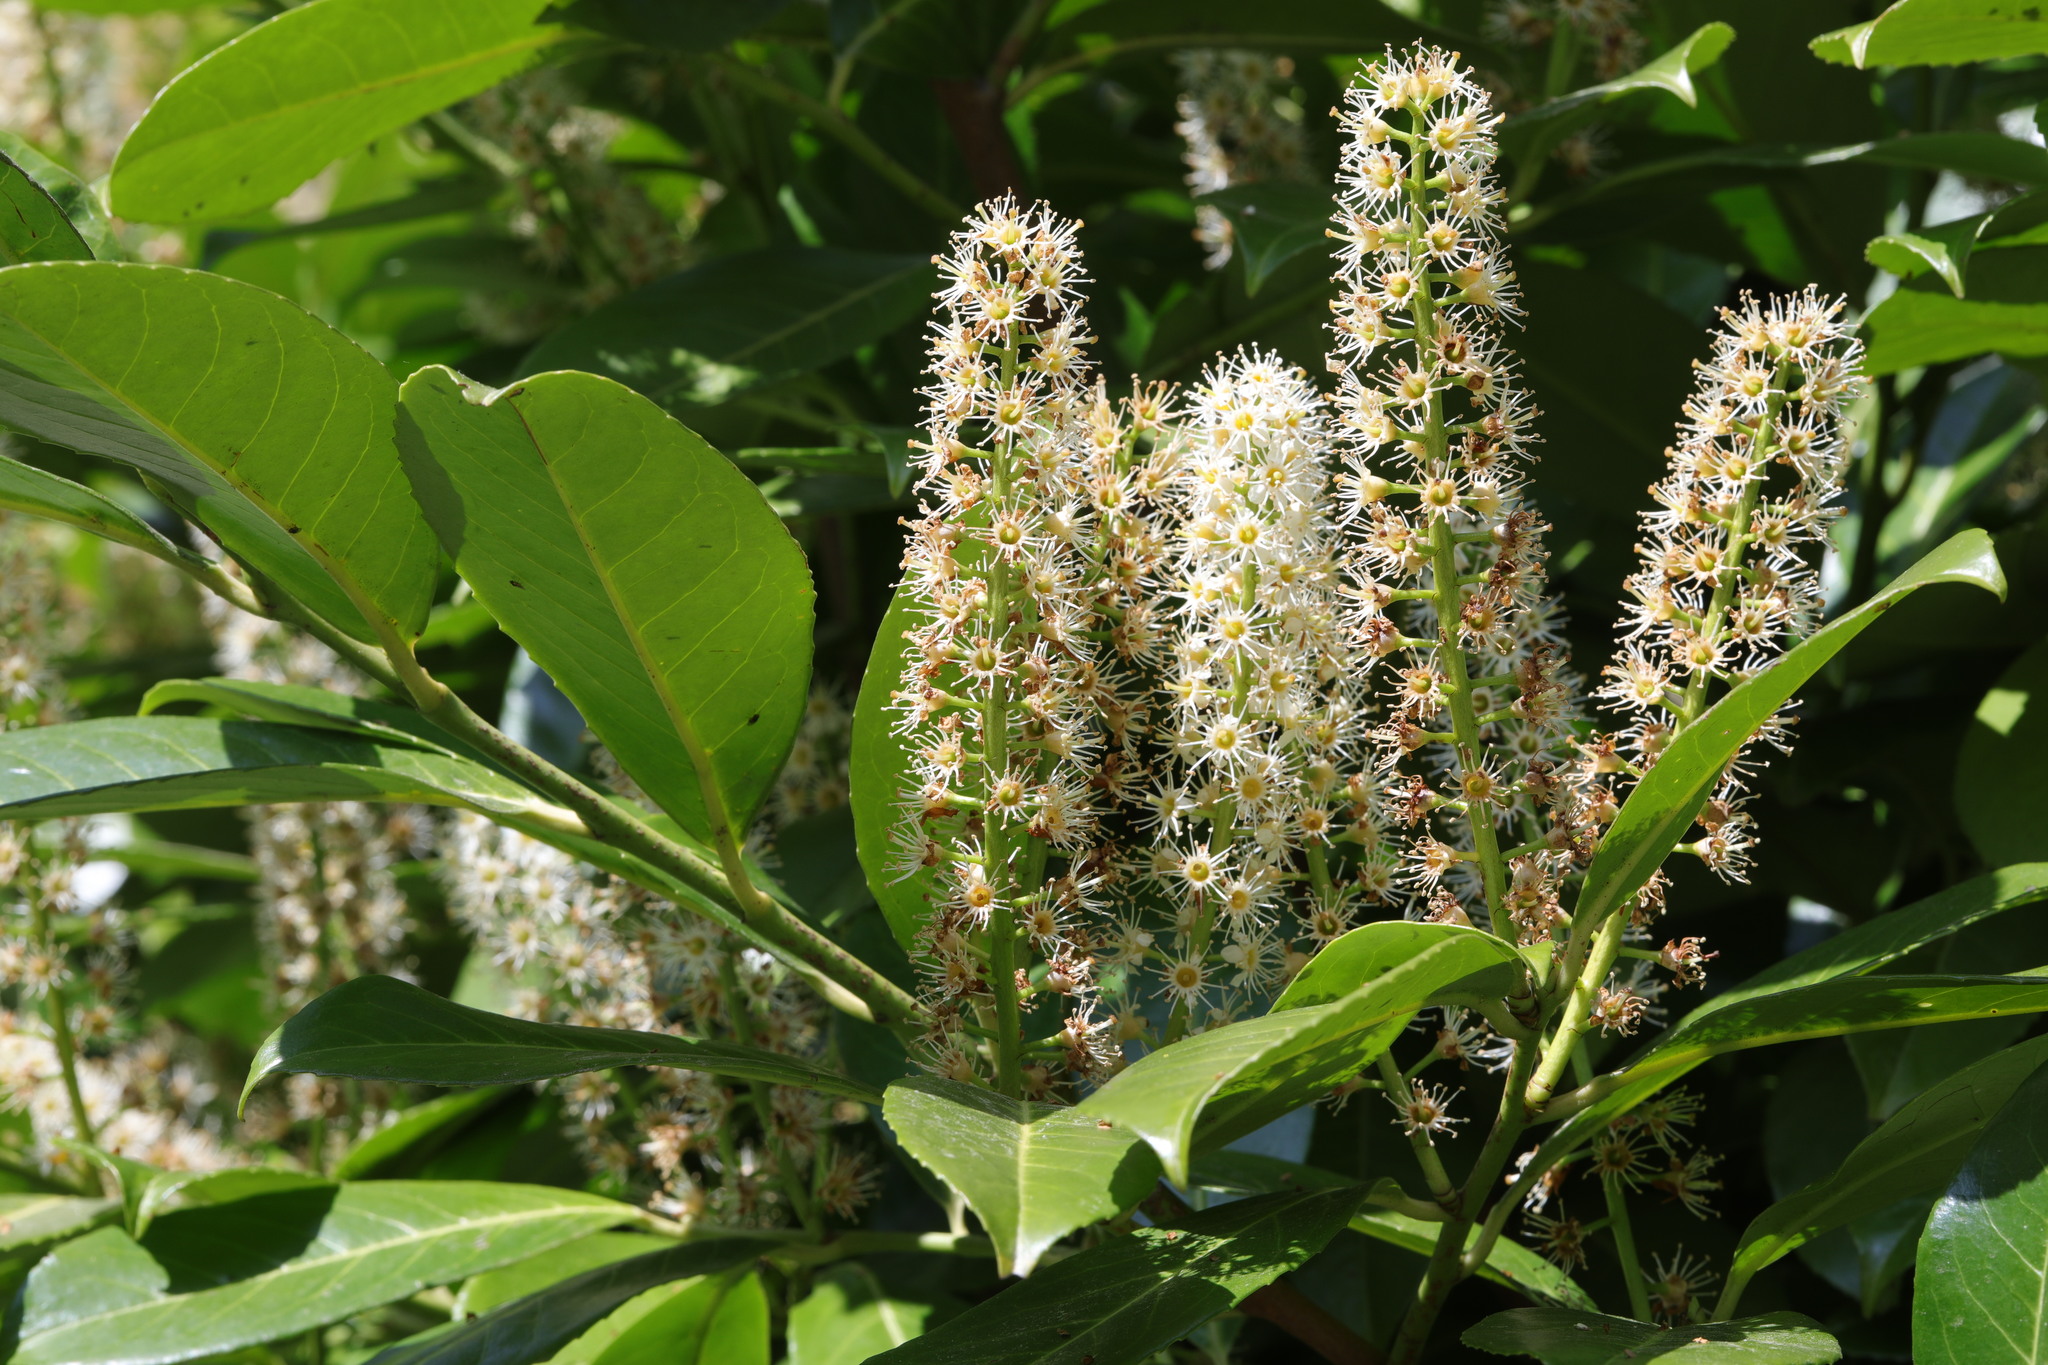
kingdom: Plantae
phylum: Tracheophyta
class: Magnoliopsida
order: Rosales
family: Rosaceae
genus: Prunus
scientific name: Prunus laurocerasus
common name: Cherry laurel
